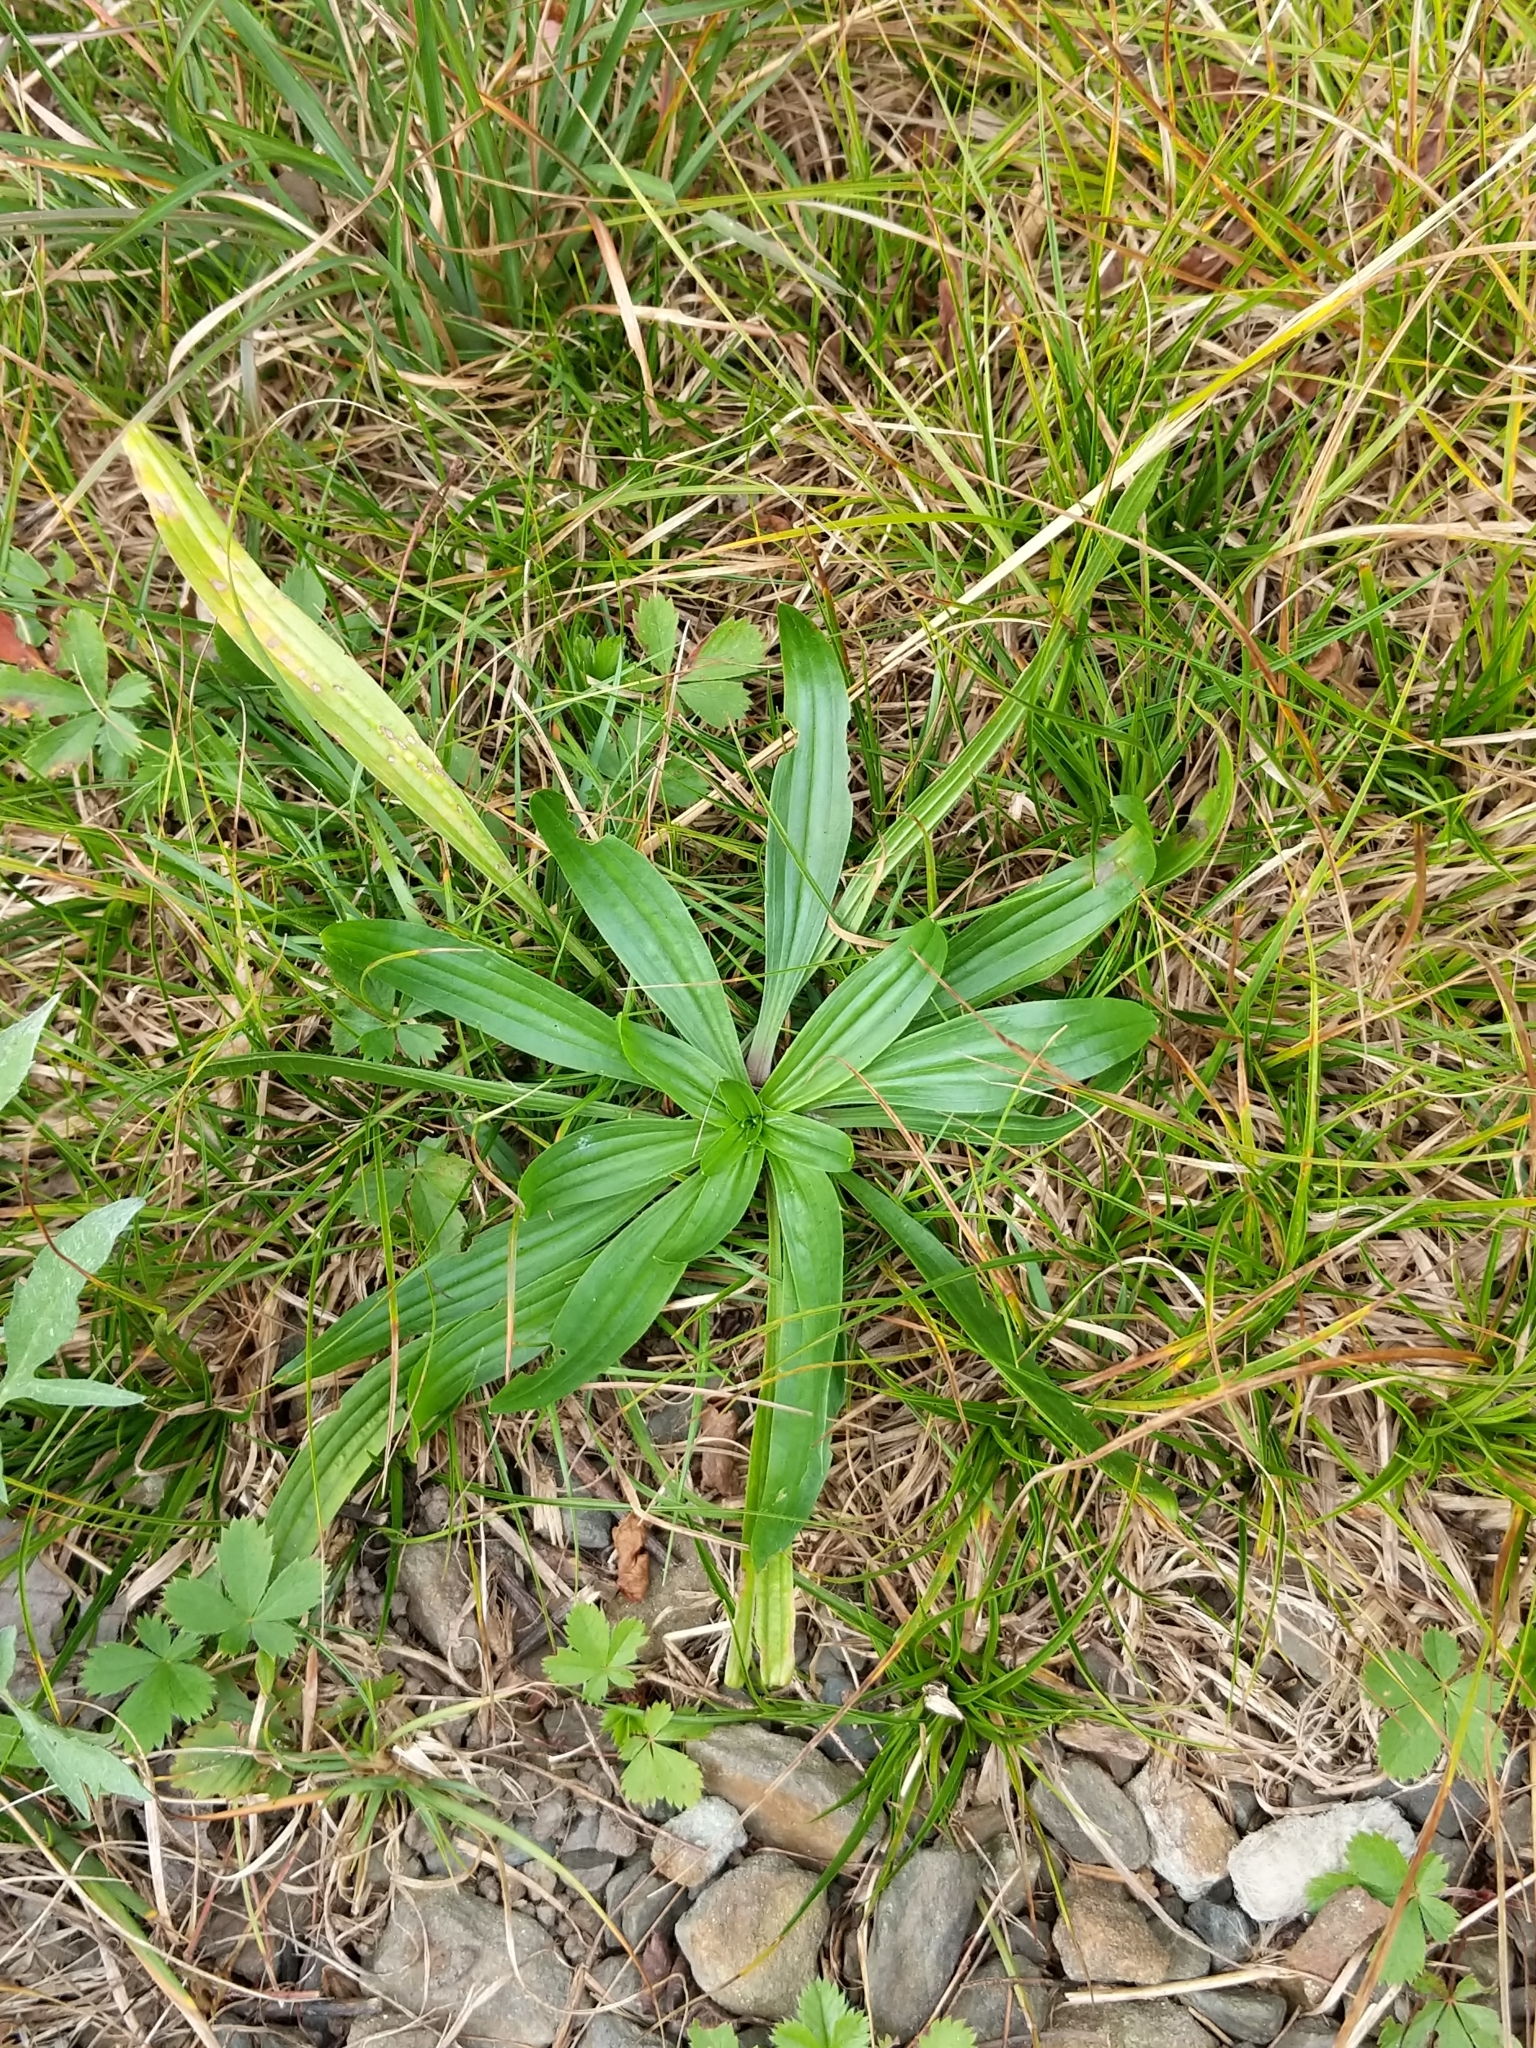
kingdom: Plantae
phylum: Tracheophyta
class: Magnoliopsida
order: Lamiales
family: Plantaginaceae
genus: Plantago
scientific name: Plantago lanceolata
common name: Ribwort plantain
